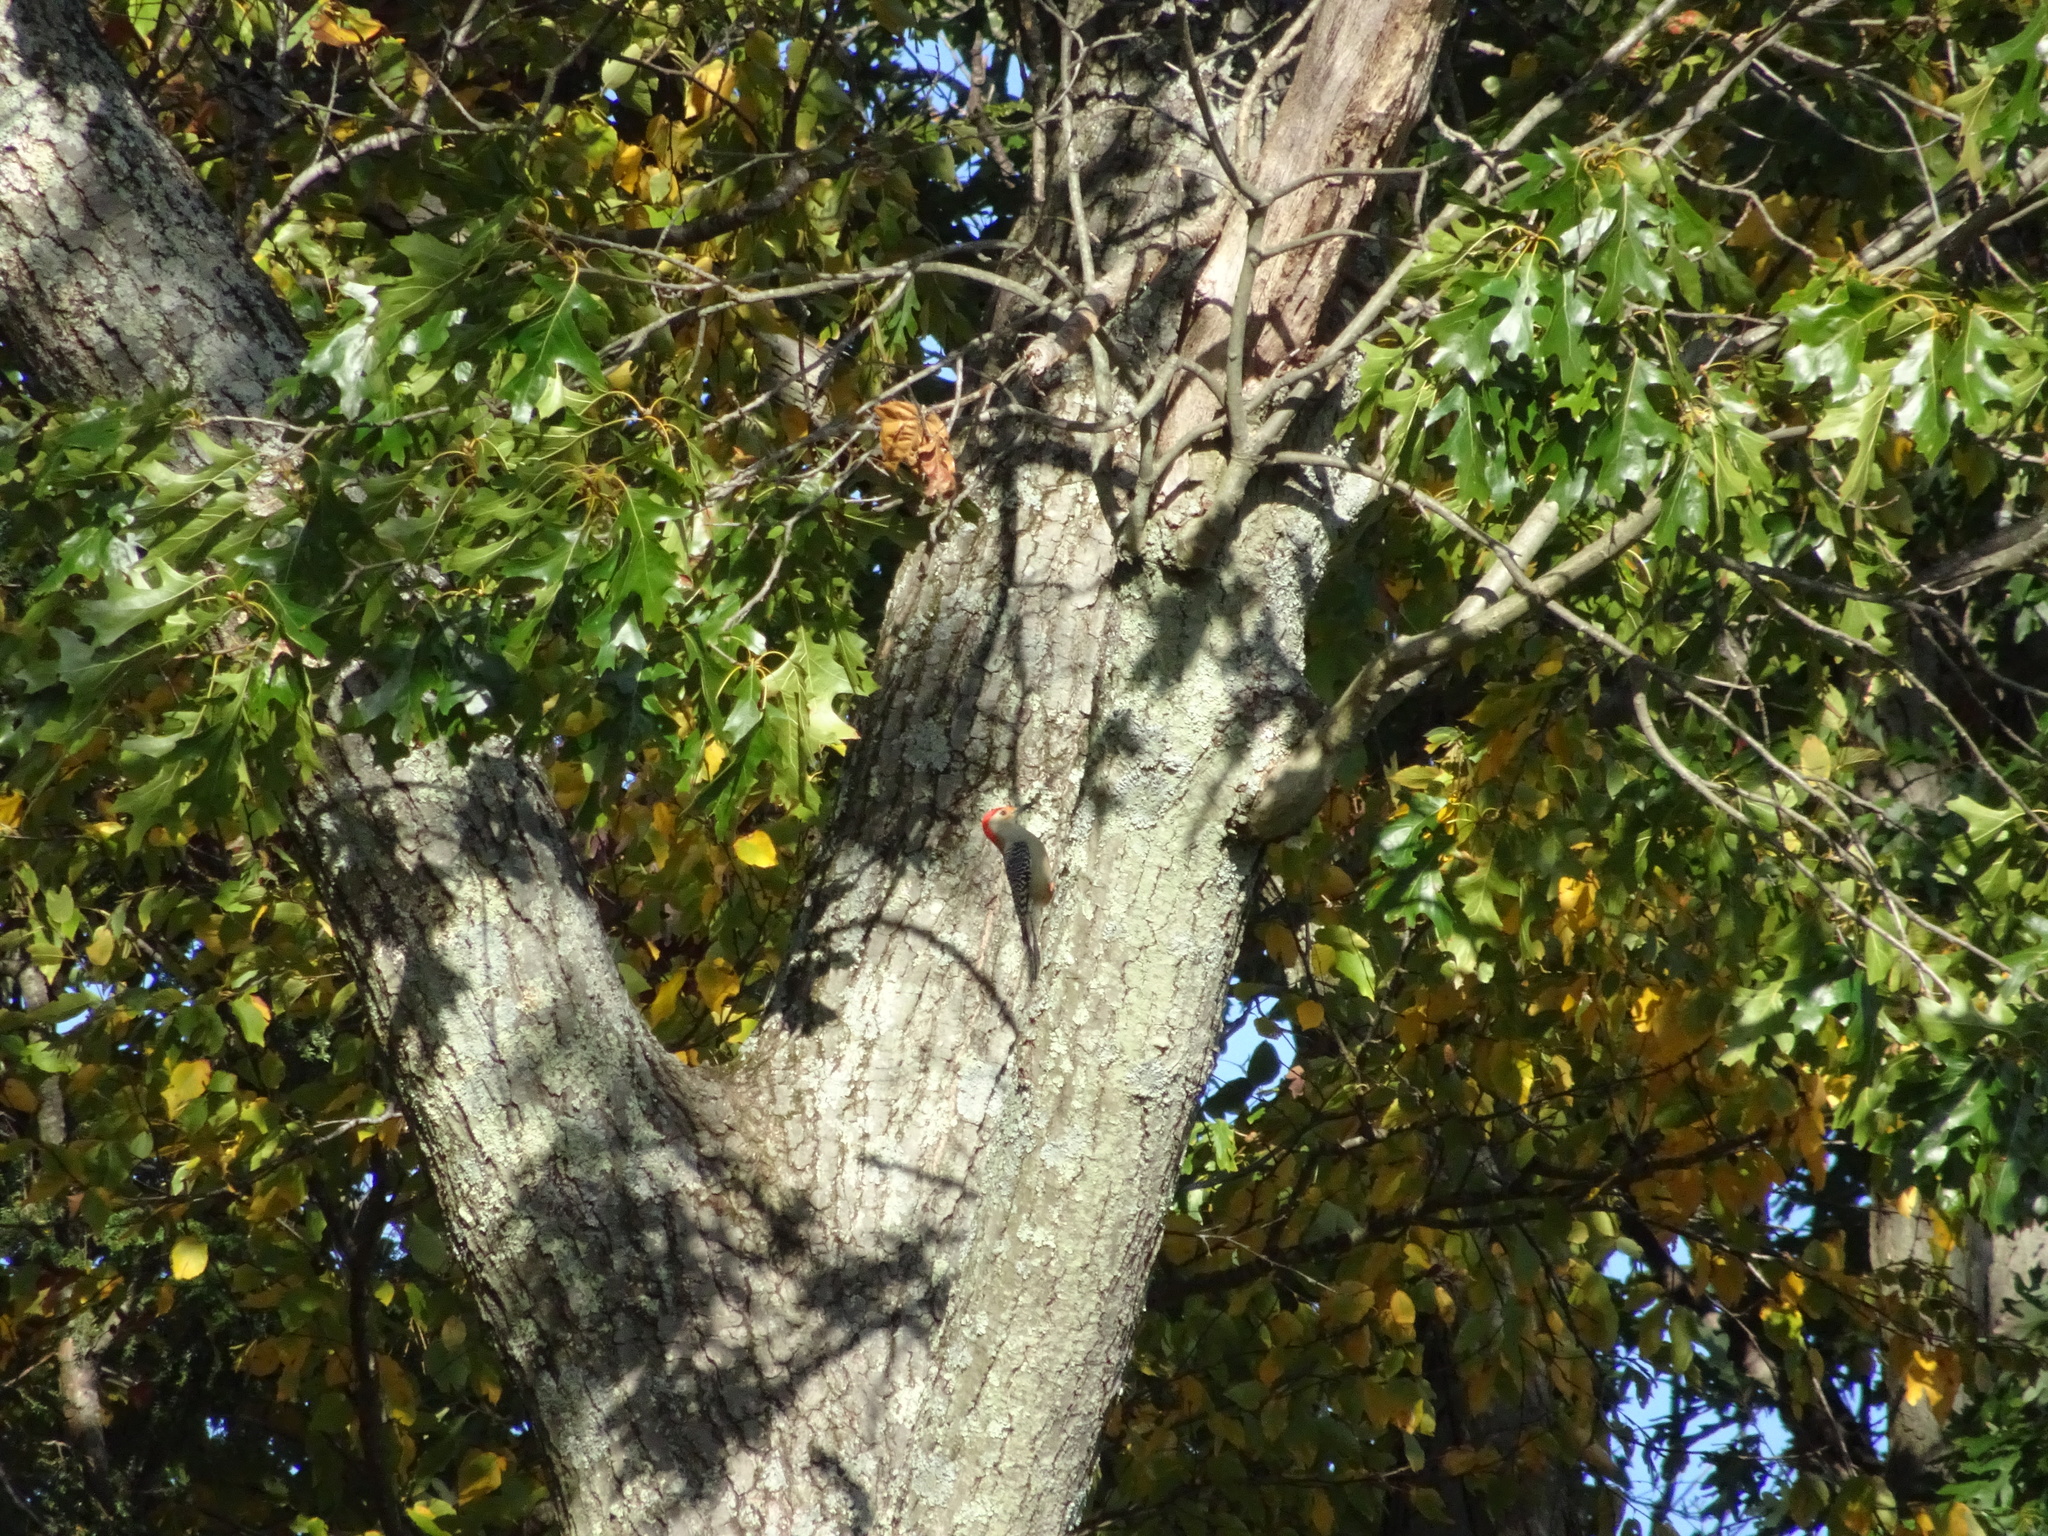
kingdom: Animalia
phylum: Chordata
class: Aves
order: Piciformes
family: Picidae
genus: Melanerpes
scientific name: Melanerpes carolinus
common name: Red-bellied woodpecker
